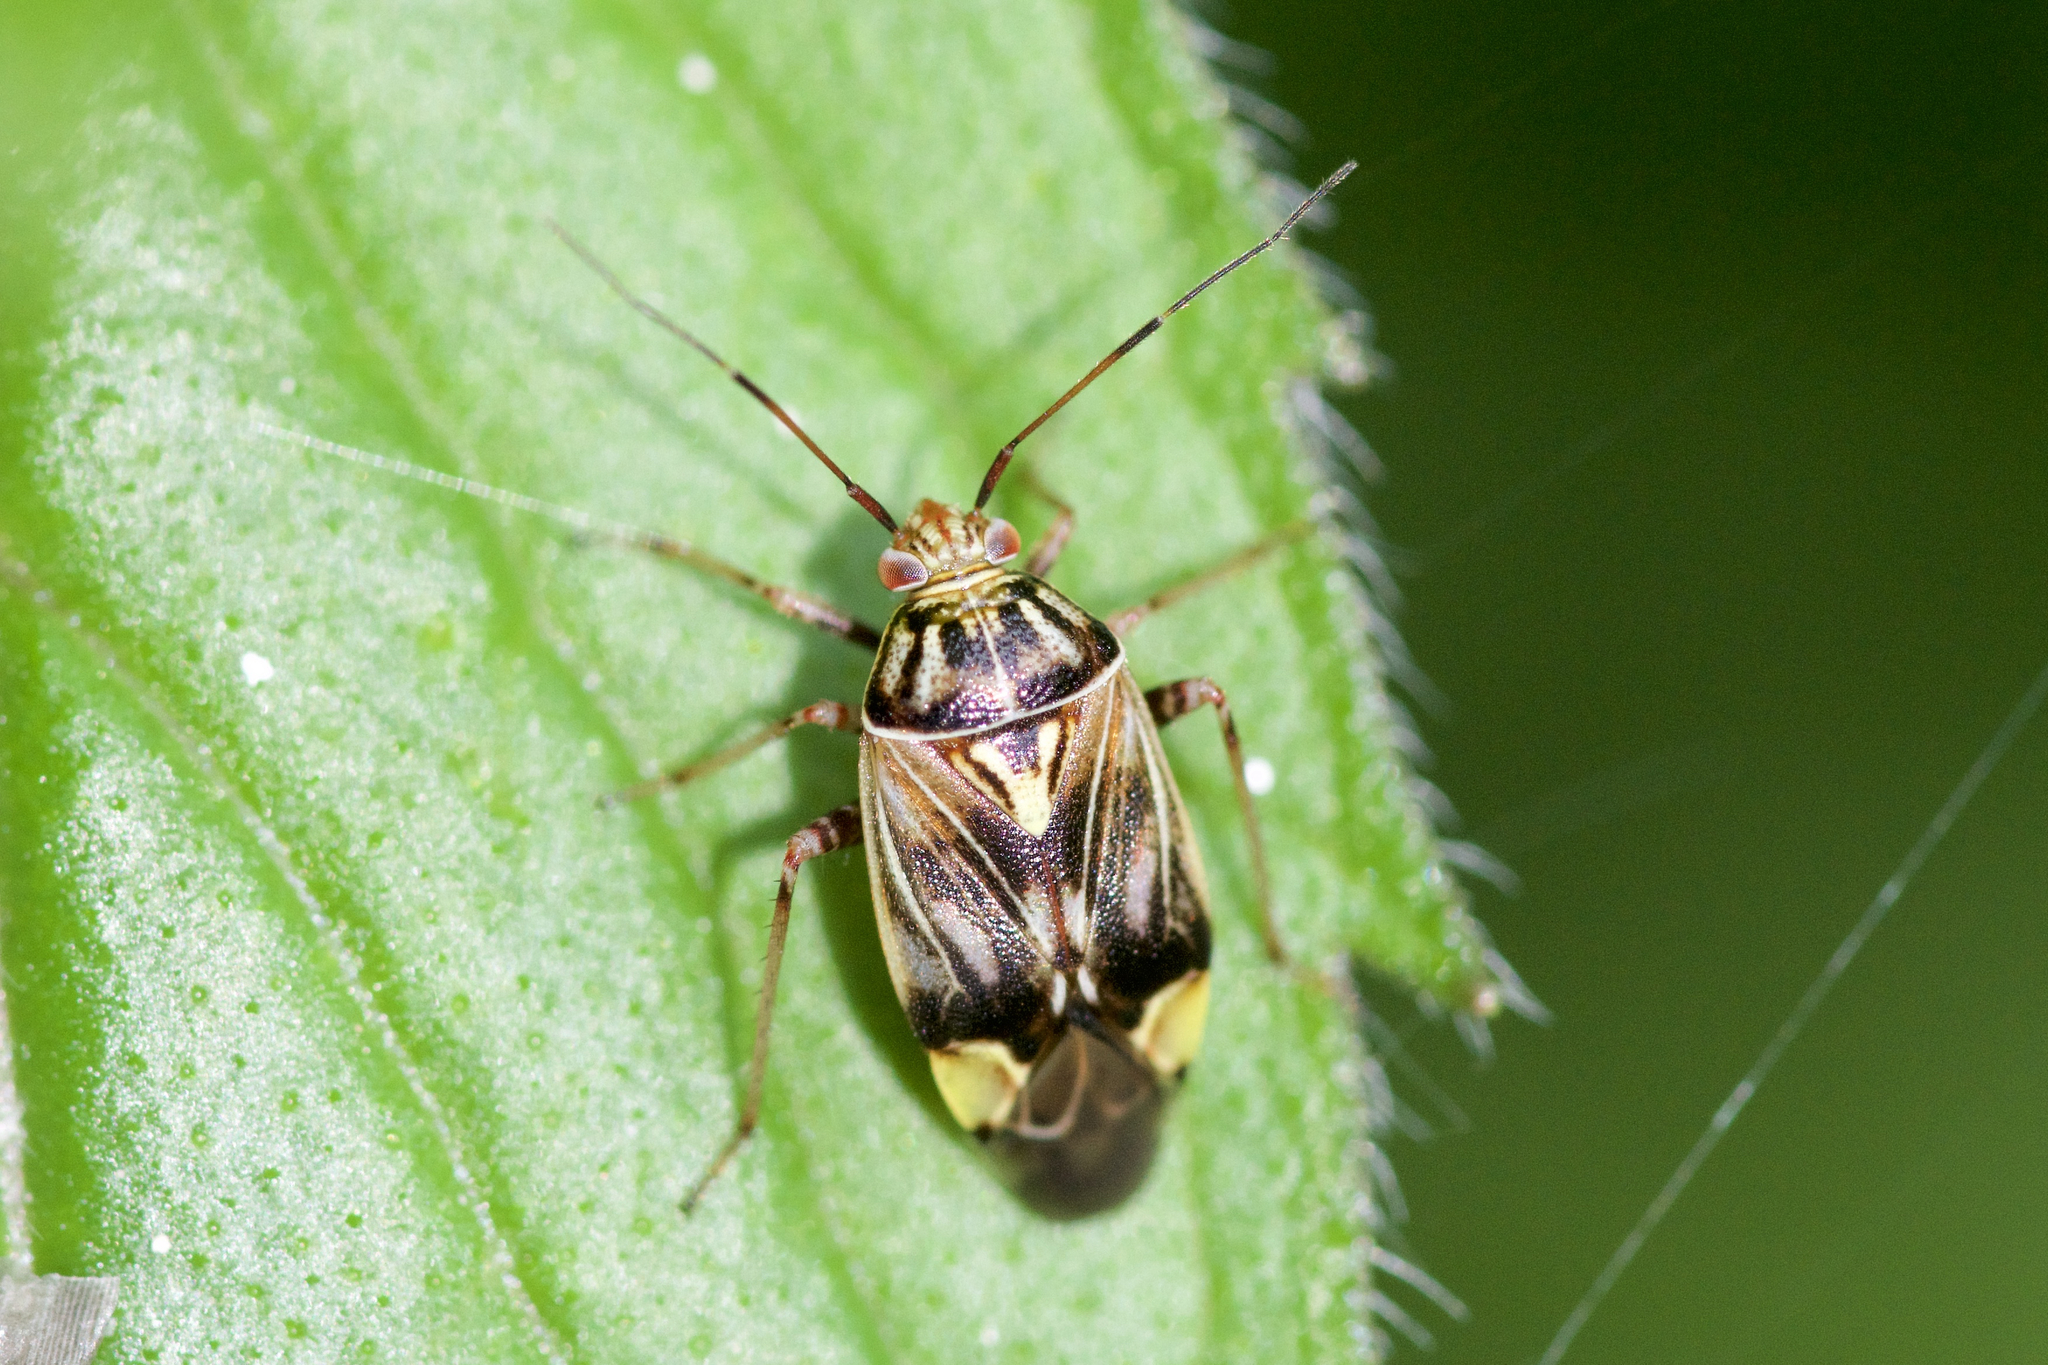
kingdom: Animalia
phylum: Arthropoda
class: Insecta
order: Hemiptera
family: Miridae
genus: Lygus
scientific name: Lygus lineolaris
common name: North american tarnished plant bug
